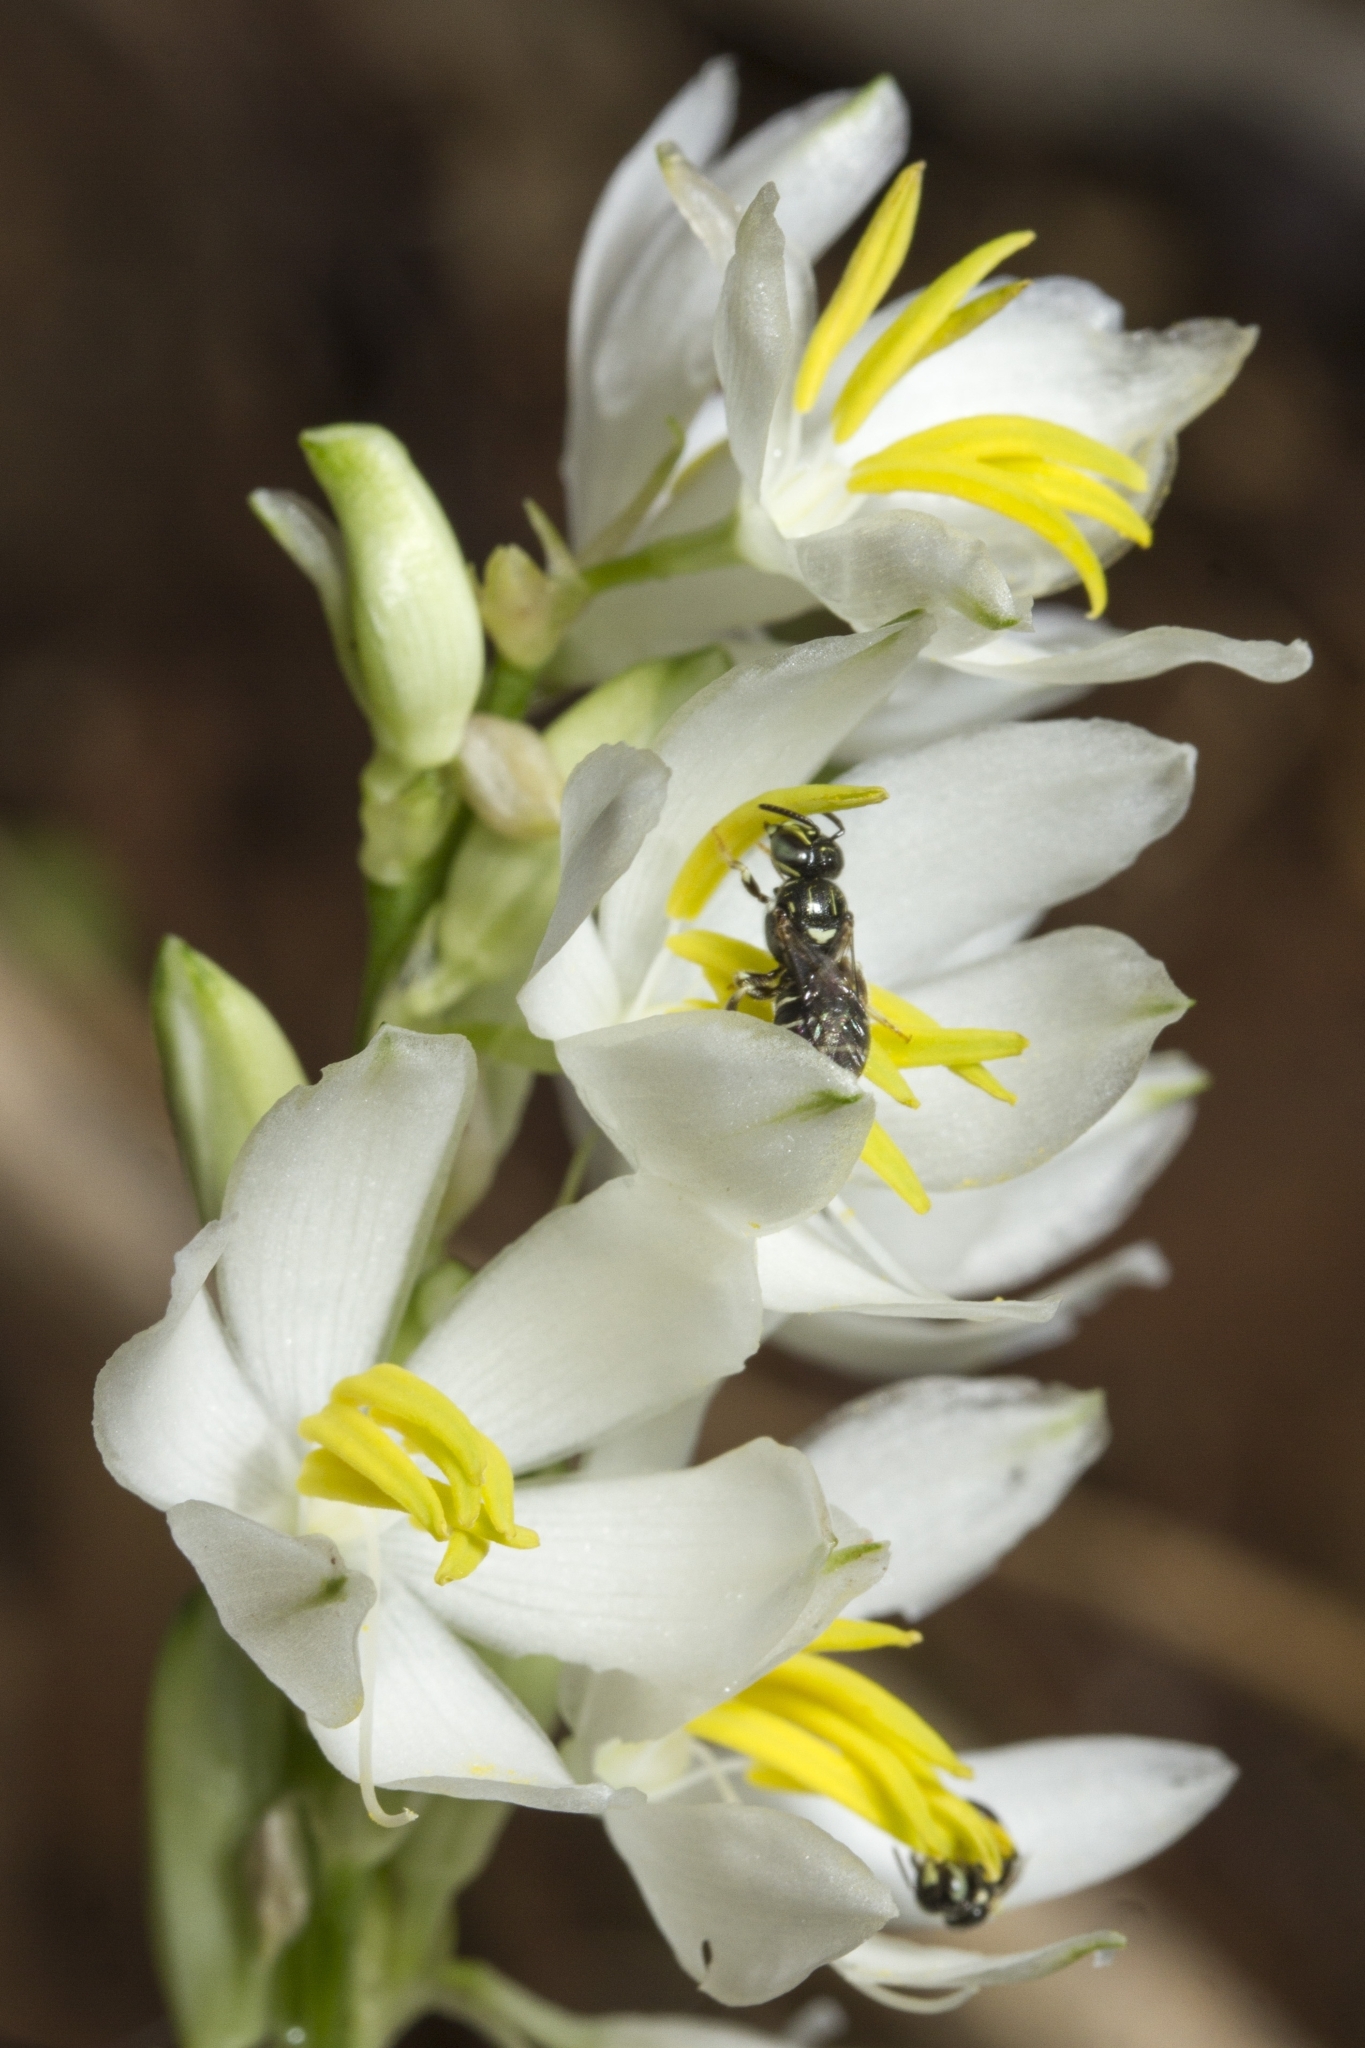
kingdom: Plantae
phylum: Tracheophyta
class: Liliopsida
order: Asparagales
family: Asparagaceae
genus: Chlorophytum
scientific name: Chlorophytum tuberosum
